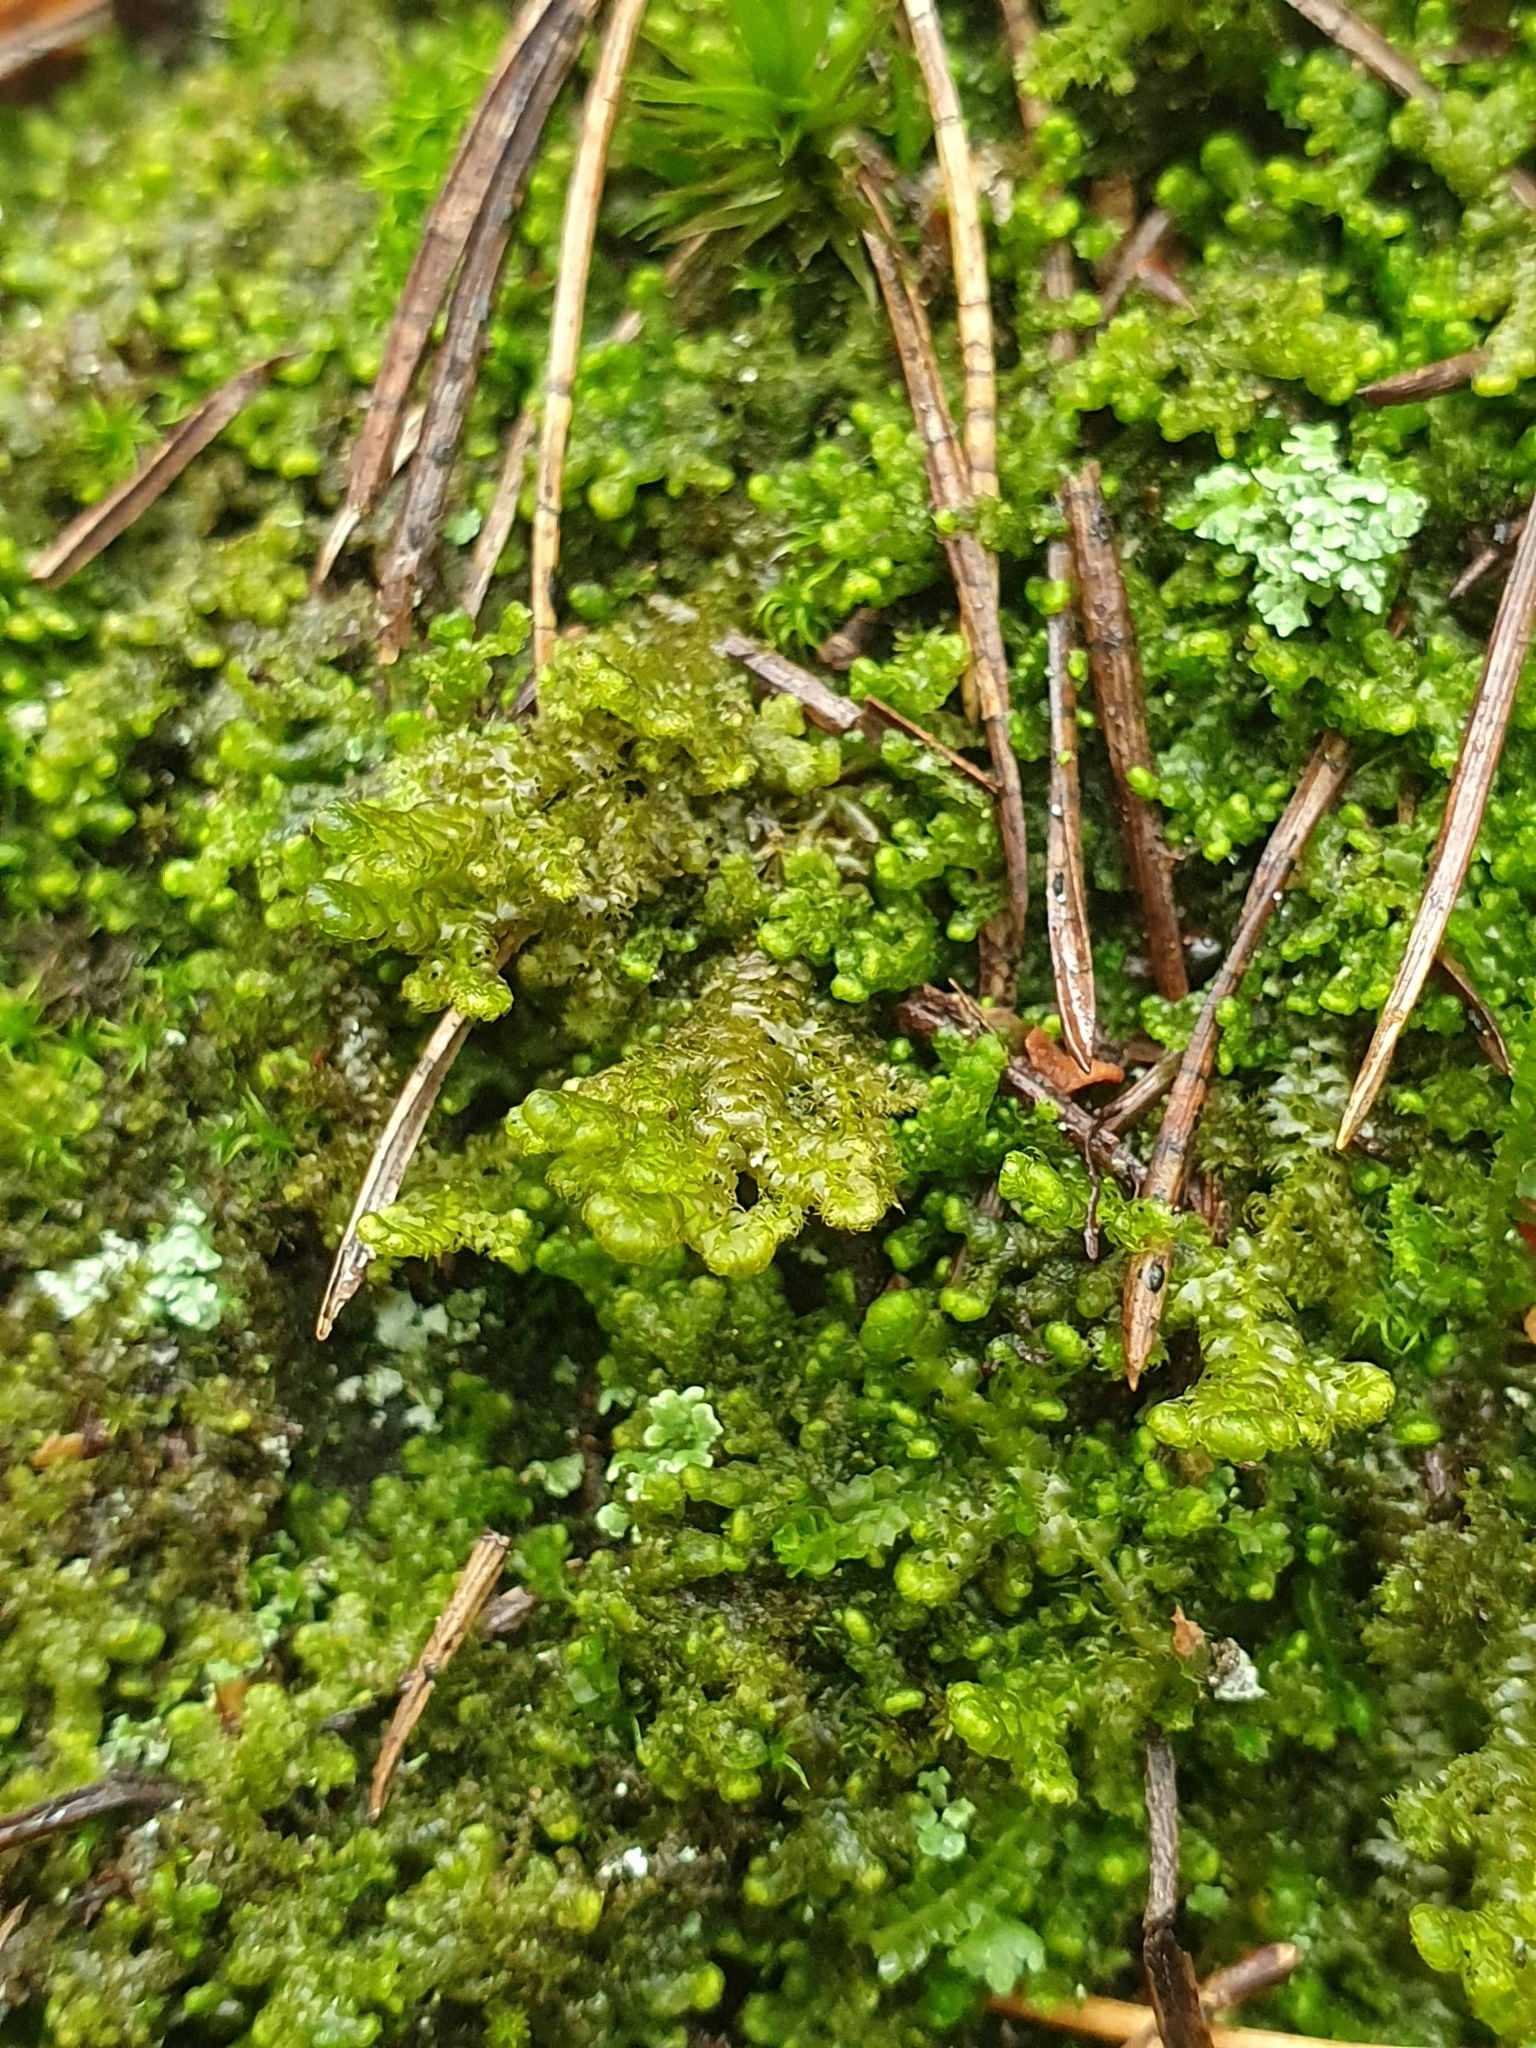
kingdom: Plantae
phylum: Marchantiophyta
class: Jungermanniopsida
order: Ptilidiales
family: Ptilidiaceae
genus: Ptilidium
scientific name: Ptilidium ciliare
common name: Ciliate fringewort
